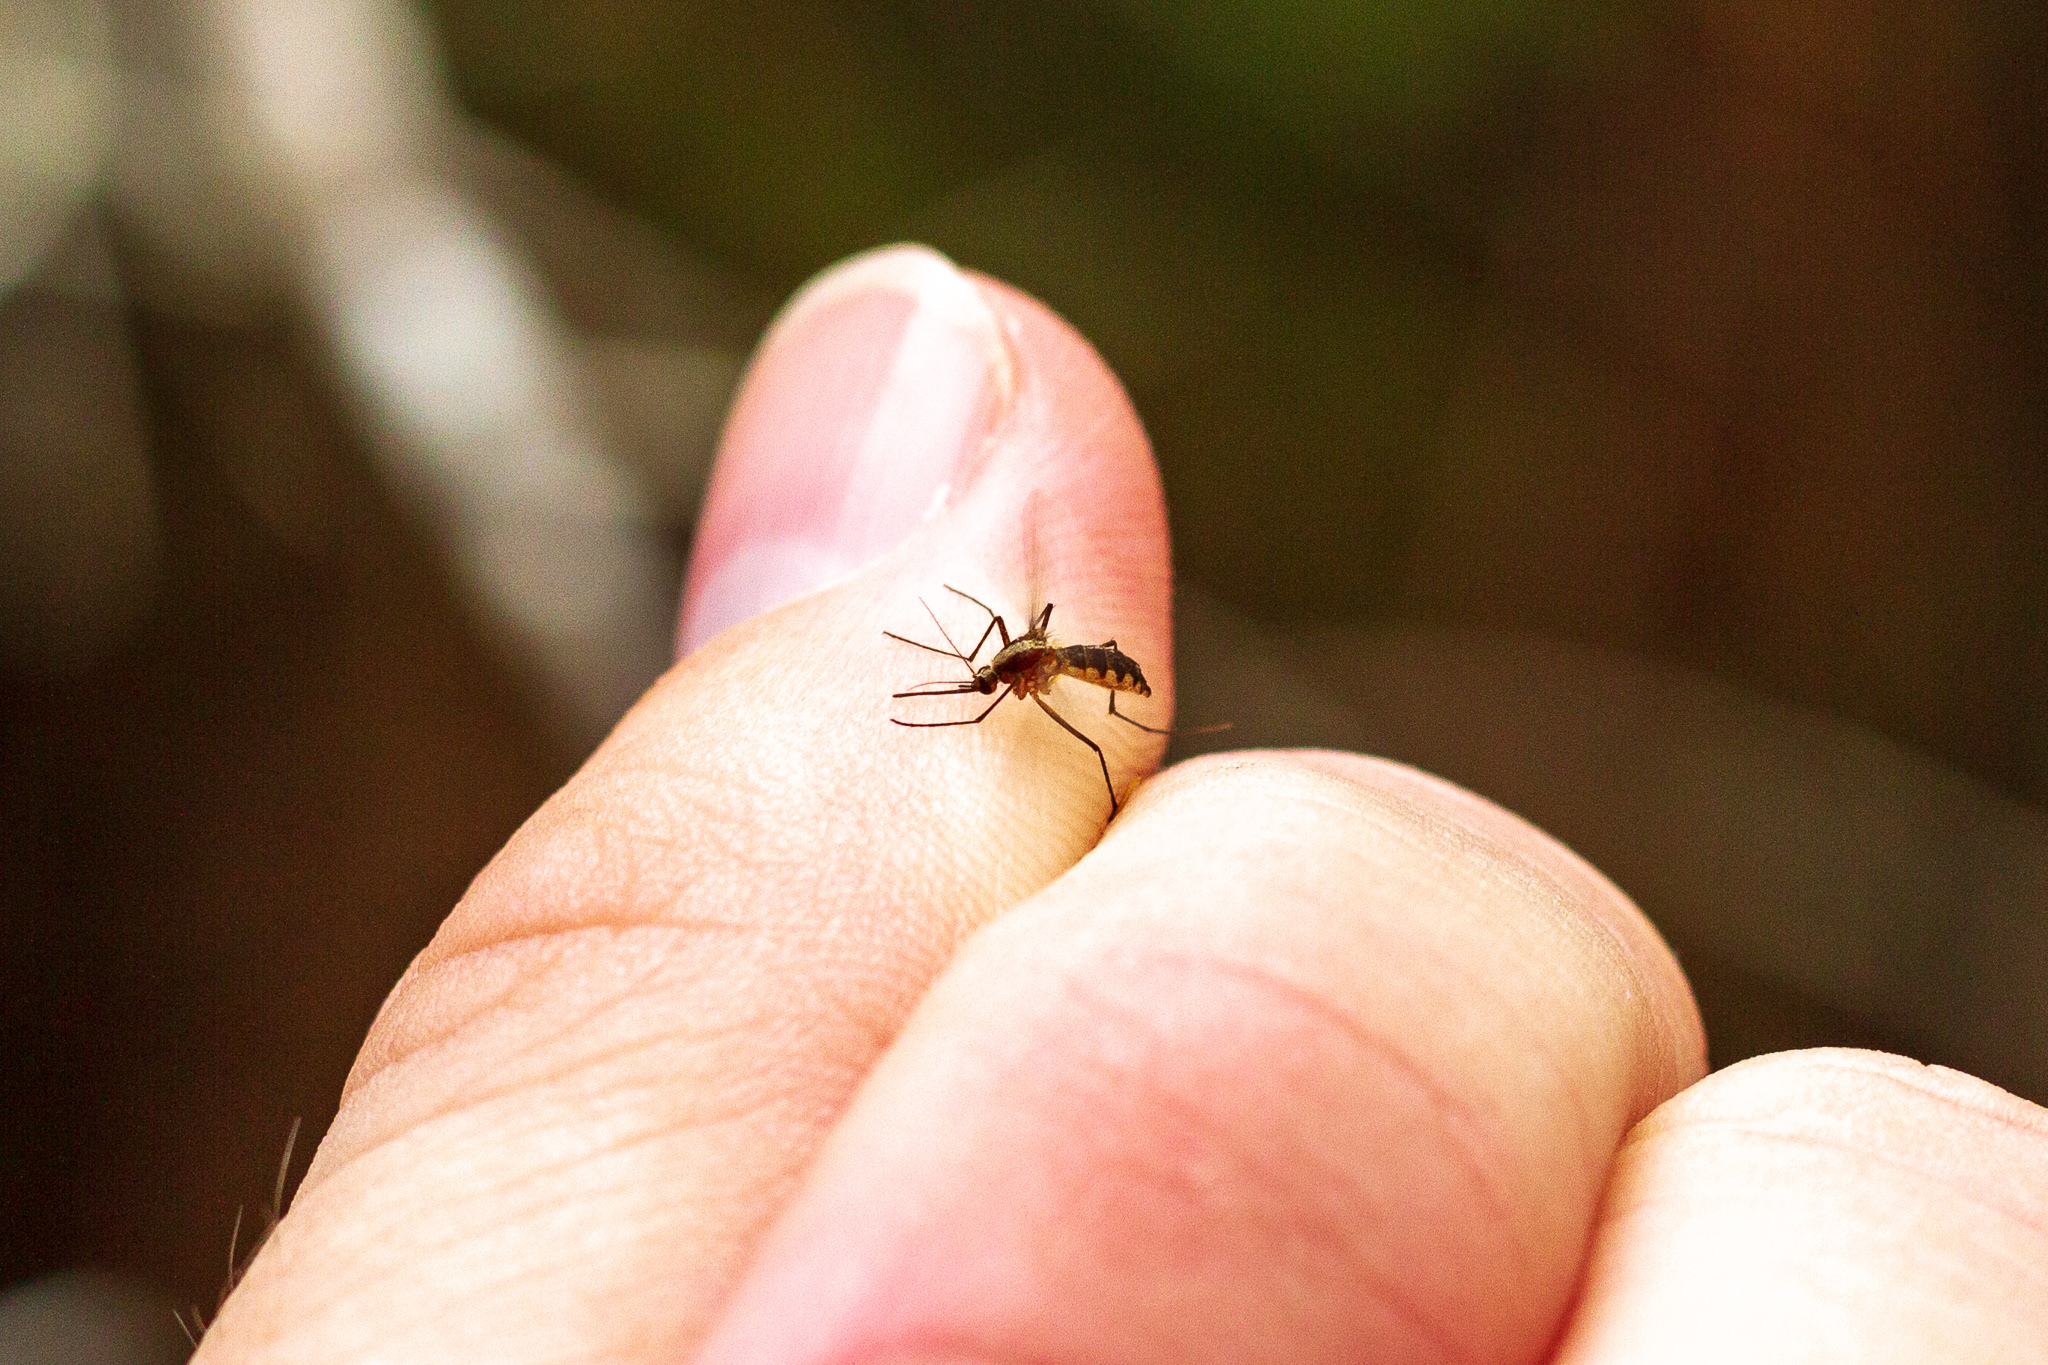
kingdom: Animalia
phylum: Arthropoda
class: Insecta
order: Diptera
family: Culicidae
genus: Aedes
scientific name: Aedes atlanticus
